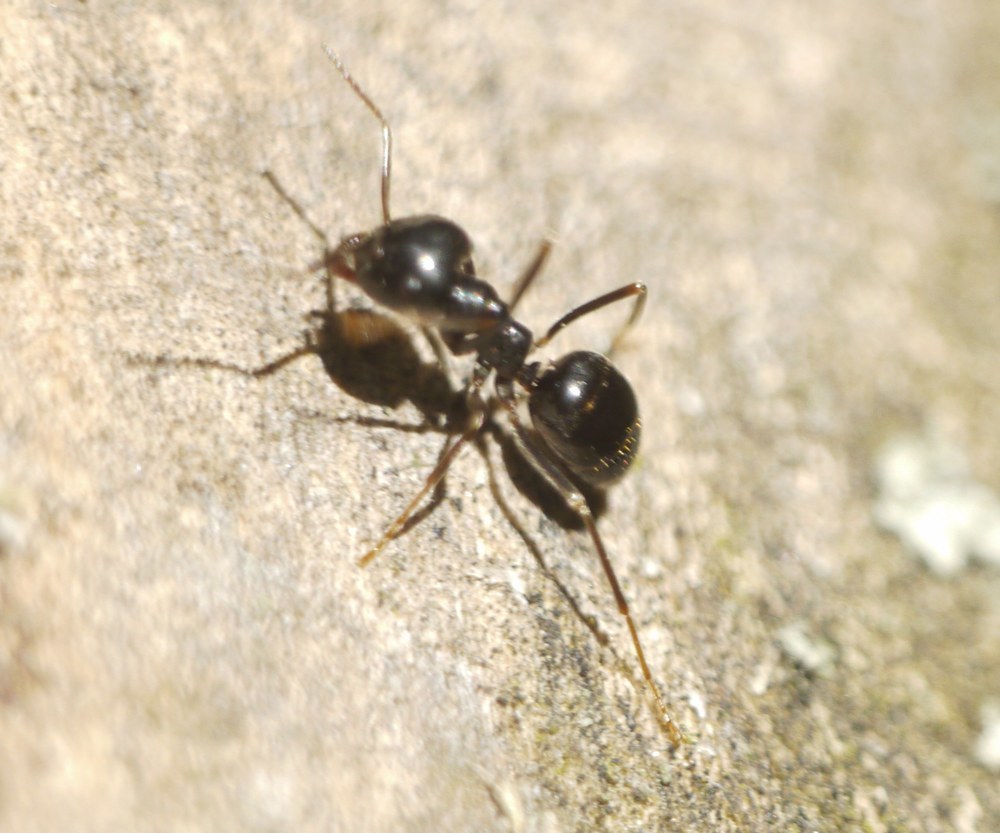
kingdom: Animalia
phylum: Arthropoda
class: Insecta
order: Hymenoptera
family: Formicidae
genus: Lasius
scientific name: Lasius fuliginosus
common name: Jet ant
